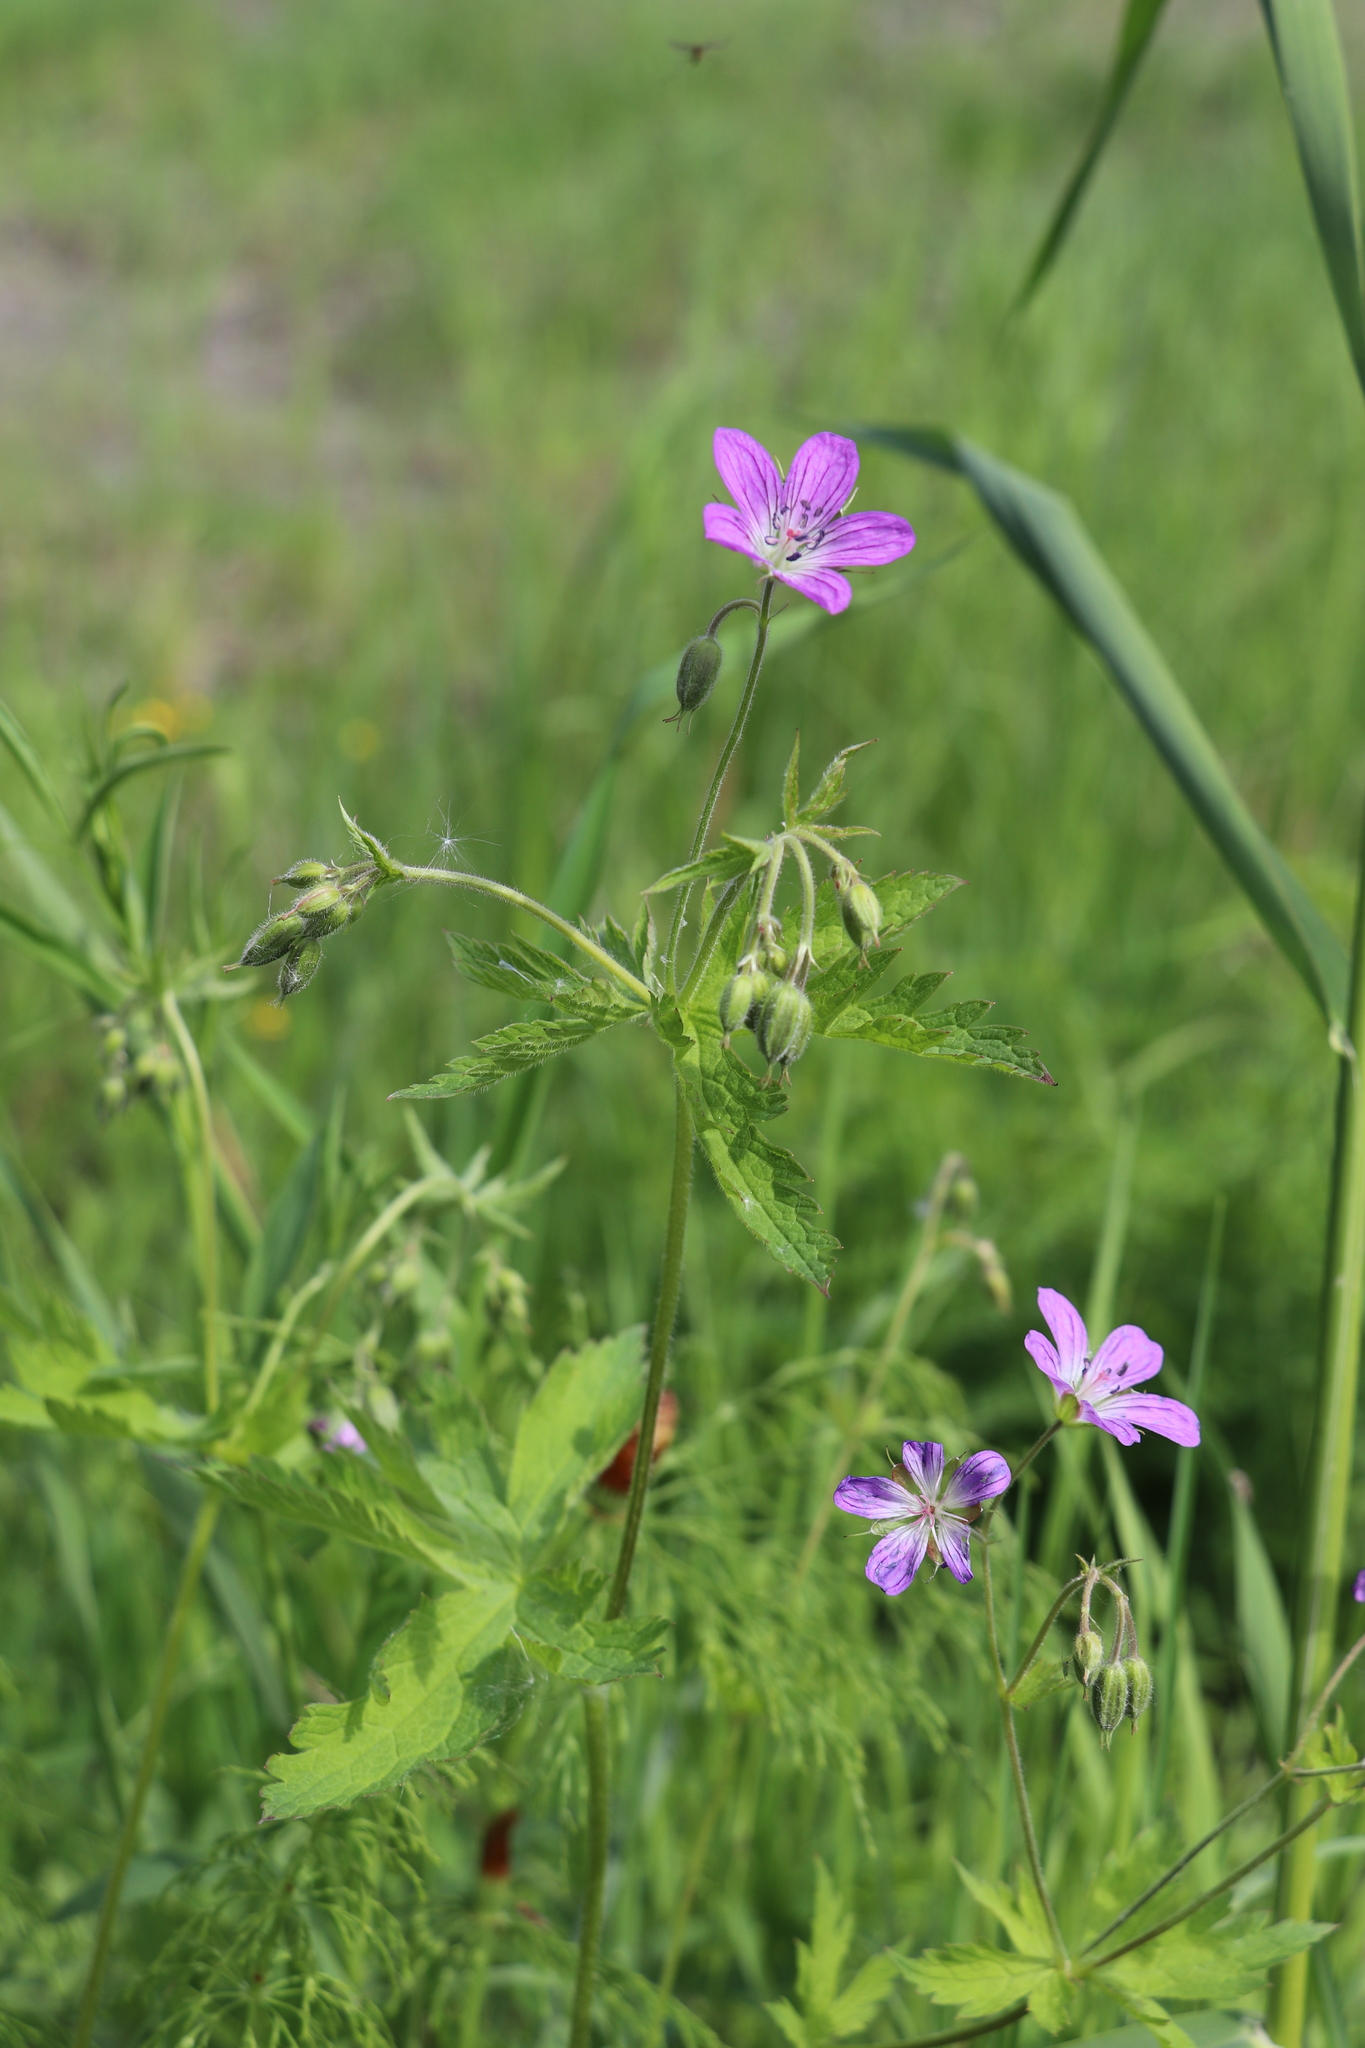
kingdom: Plantae
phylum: Tracheophyta
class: Magnoliopsida
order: Geraniales
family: Geraniaceae
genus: Geranium
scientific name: Geranium sylvaticum
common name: Wood crane's-bill
